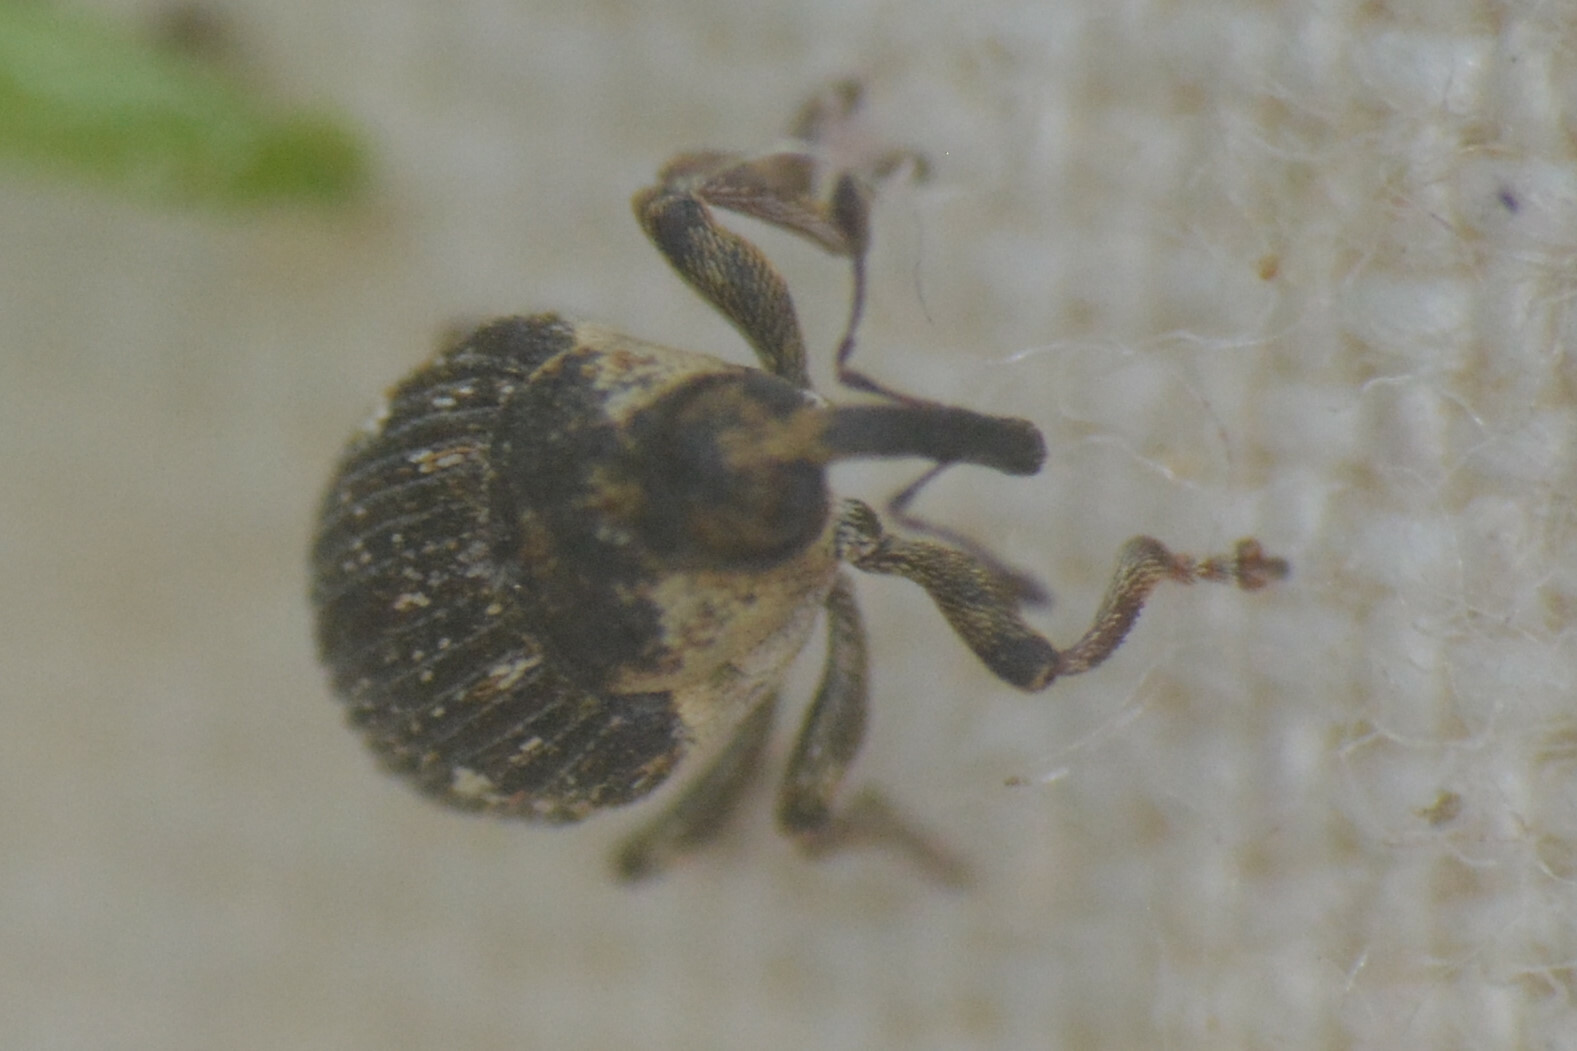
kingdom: Animalia
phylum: Arthropoda
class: Insecta
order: Coleoptera
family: Curculionidae
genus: Nedyus
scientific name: Nedyus quadrimaculatus
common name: Small nettle weevil
